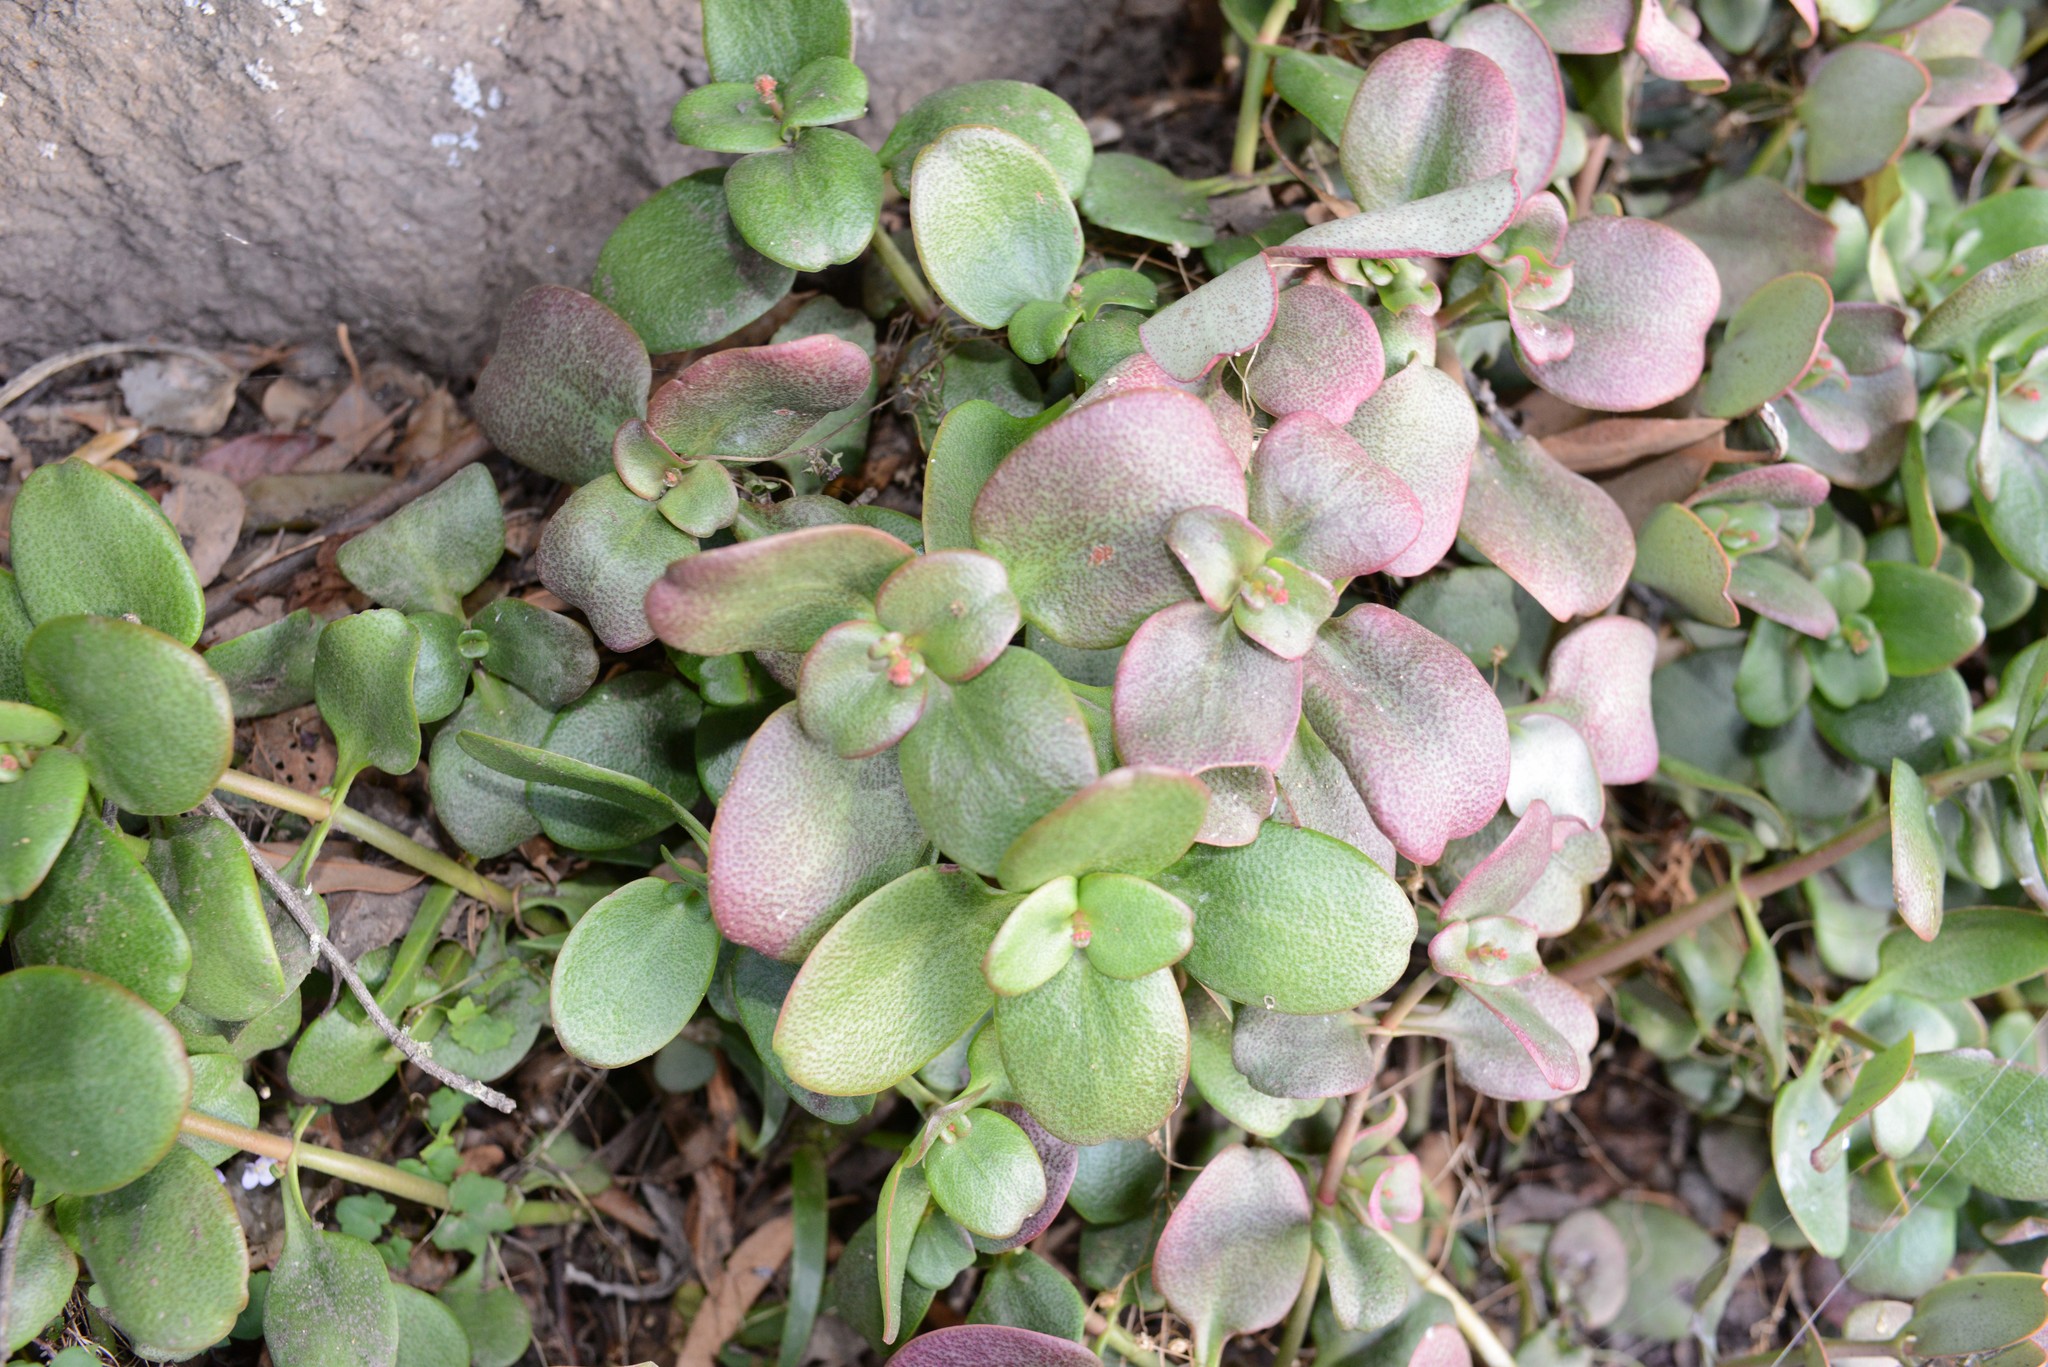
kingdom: Plantae
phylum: Tracheophyta
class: Magnoliopsida
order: Saxifragales
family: Crassulaceae
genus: Crassula
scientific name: Crassula multicava
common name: Cape province pygmyweed
